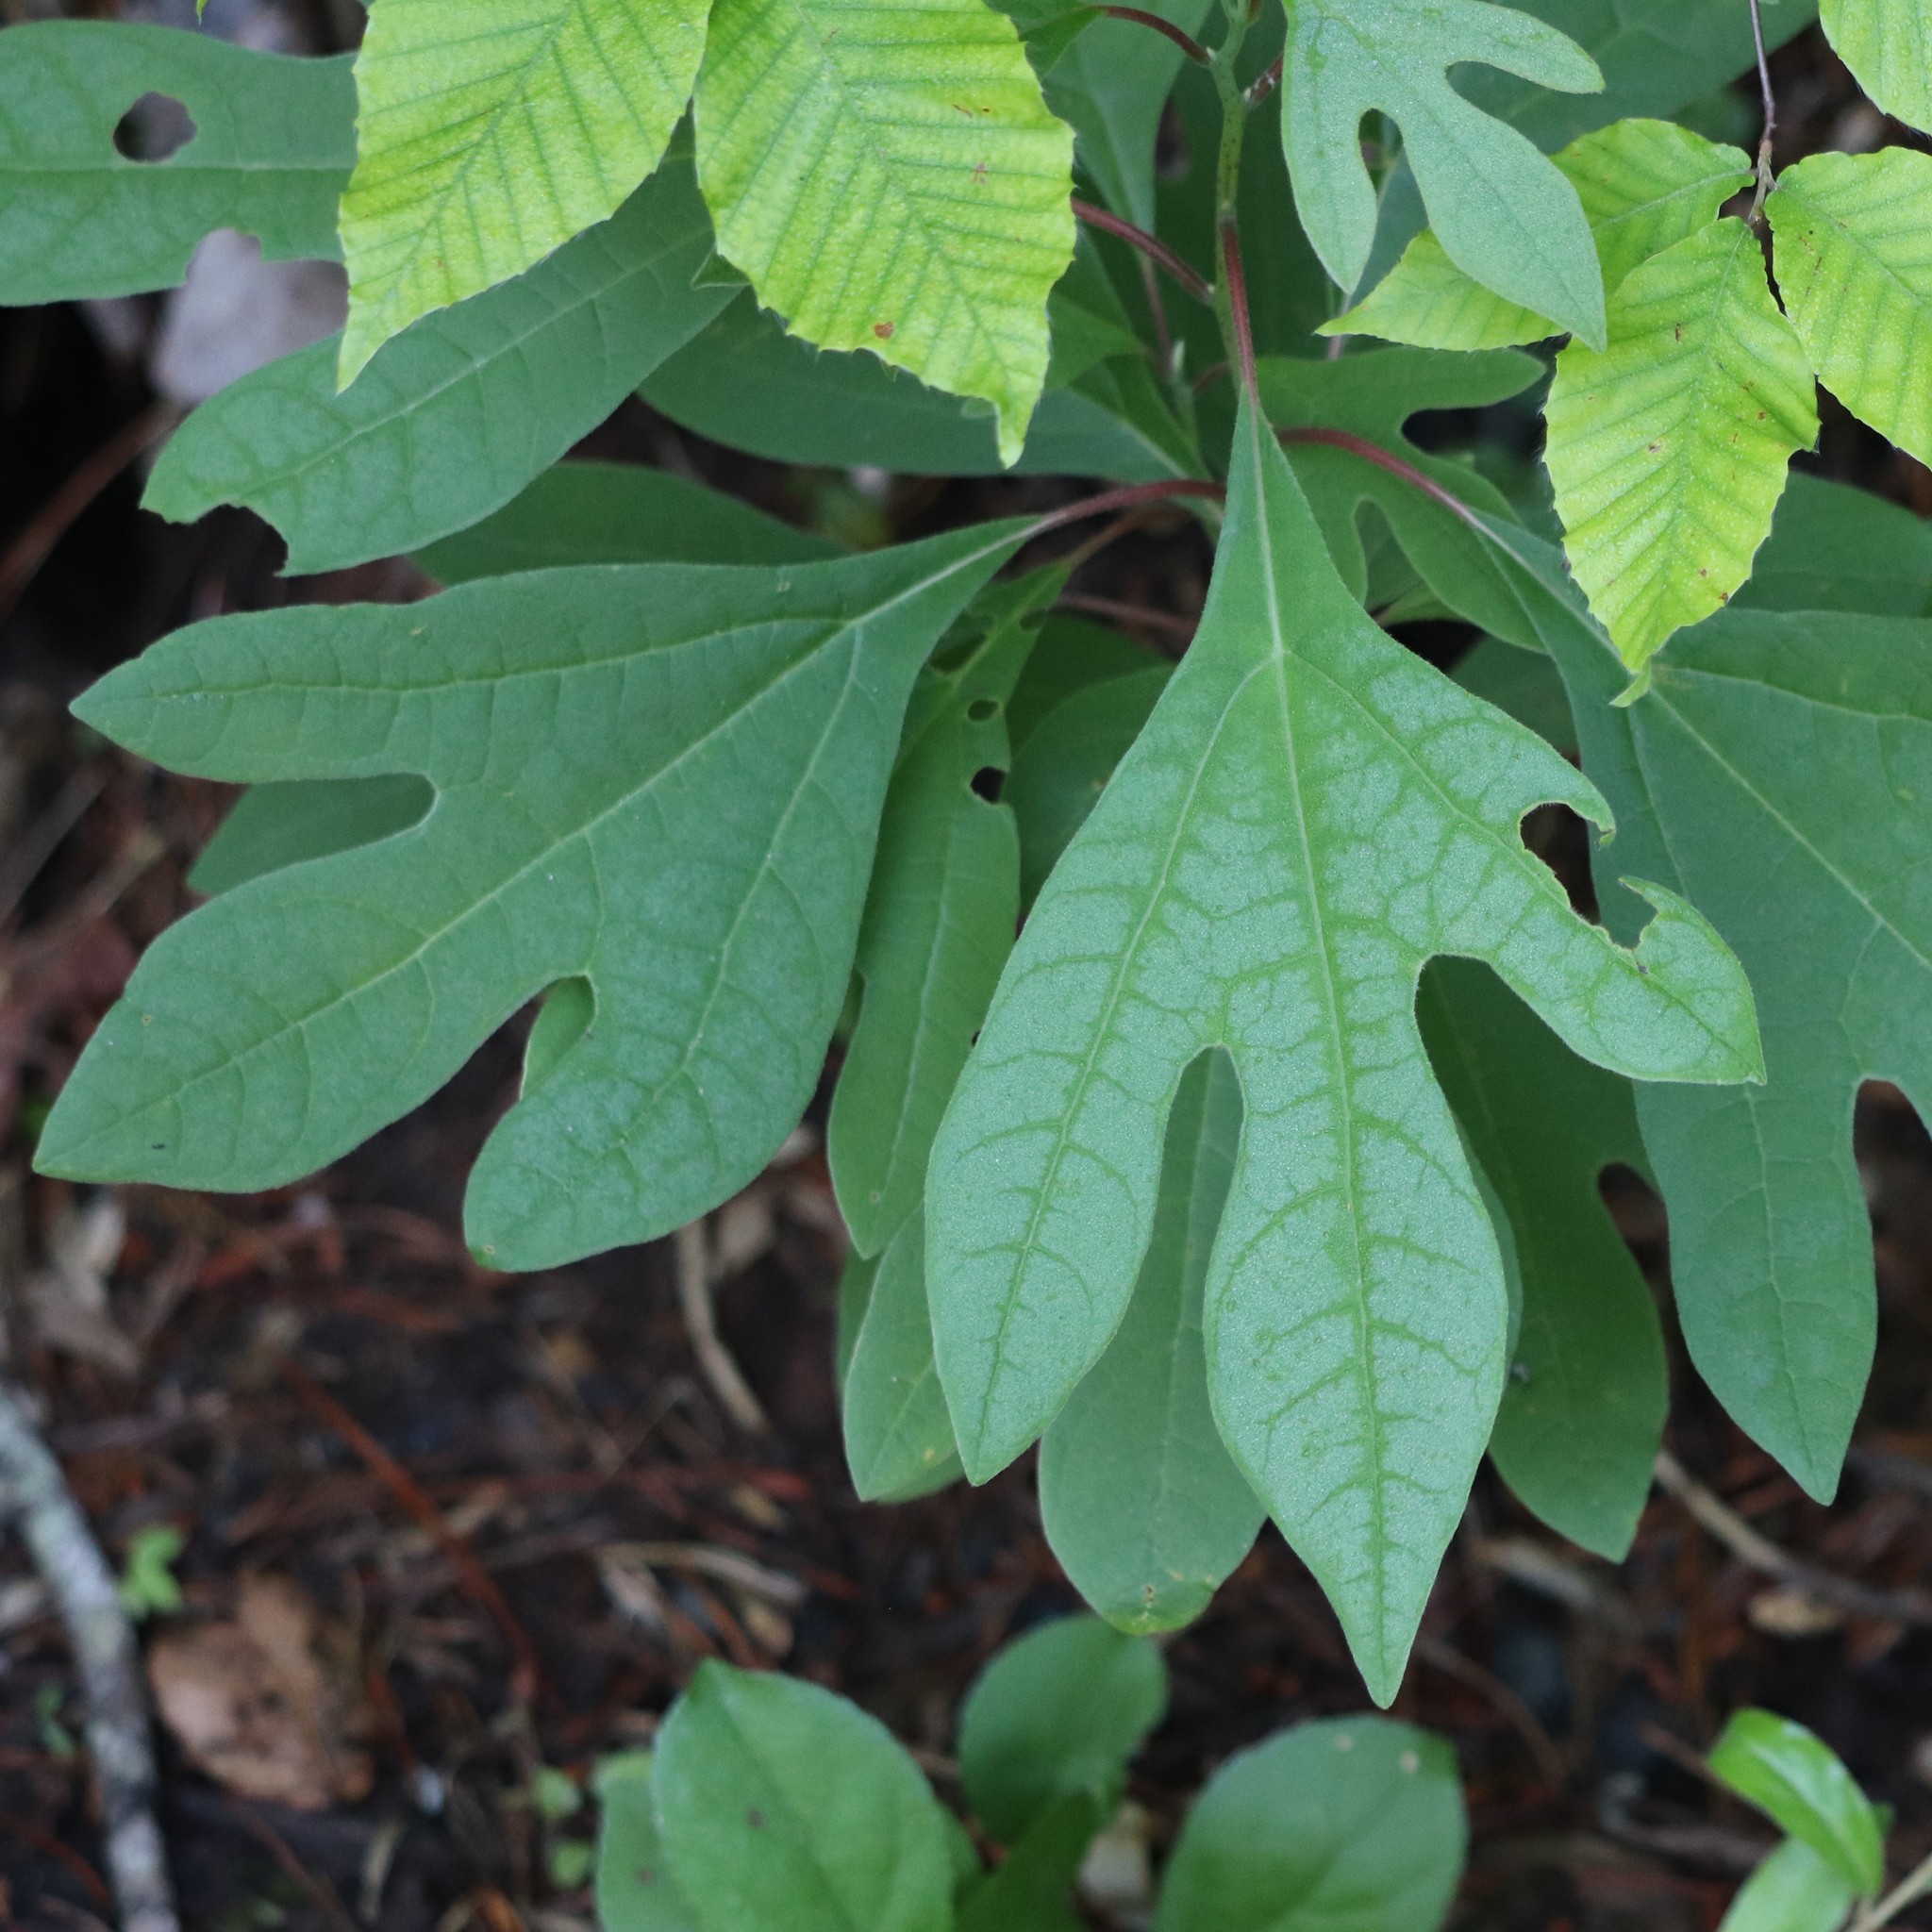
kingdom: Plantae
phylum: Tracheophyta
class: Magnoliopsida
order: Laurales
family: Lauraceae
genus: Sassafras
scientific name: Sassafras albidum
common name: Sassafras
